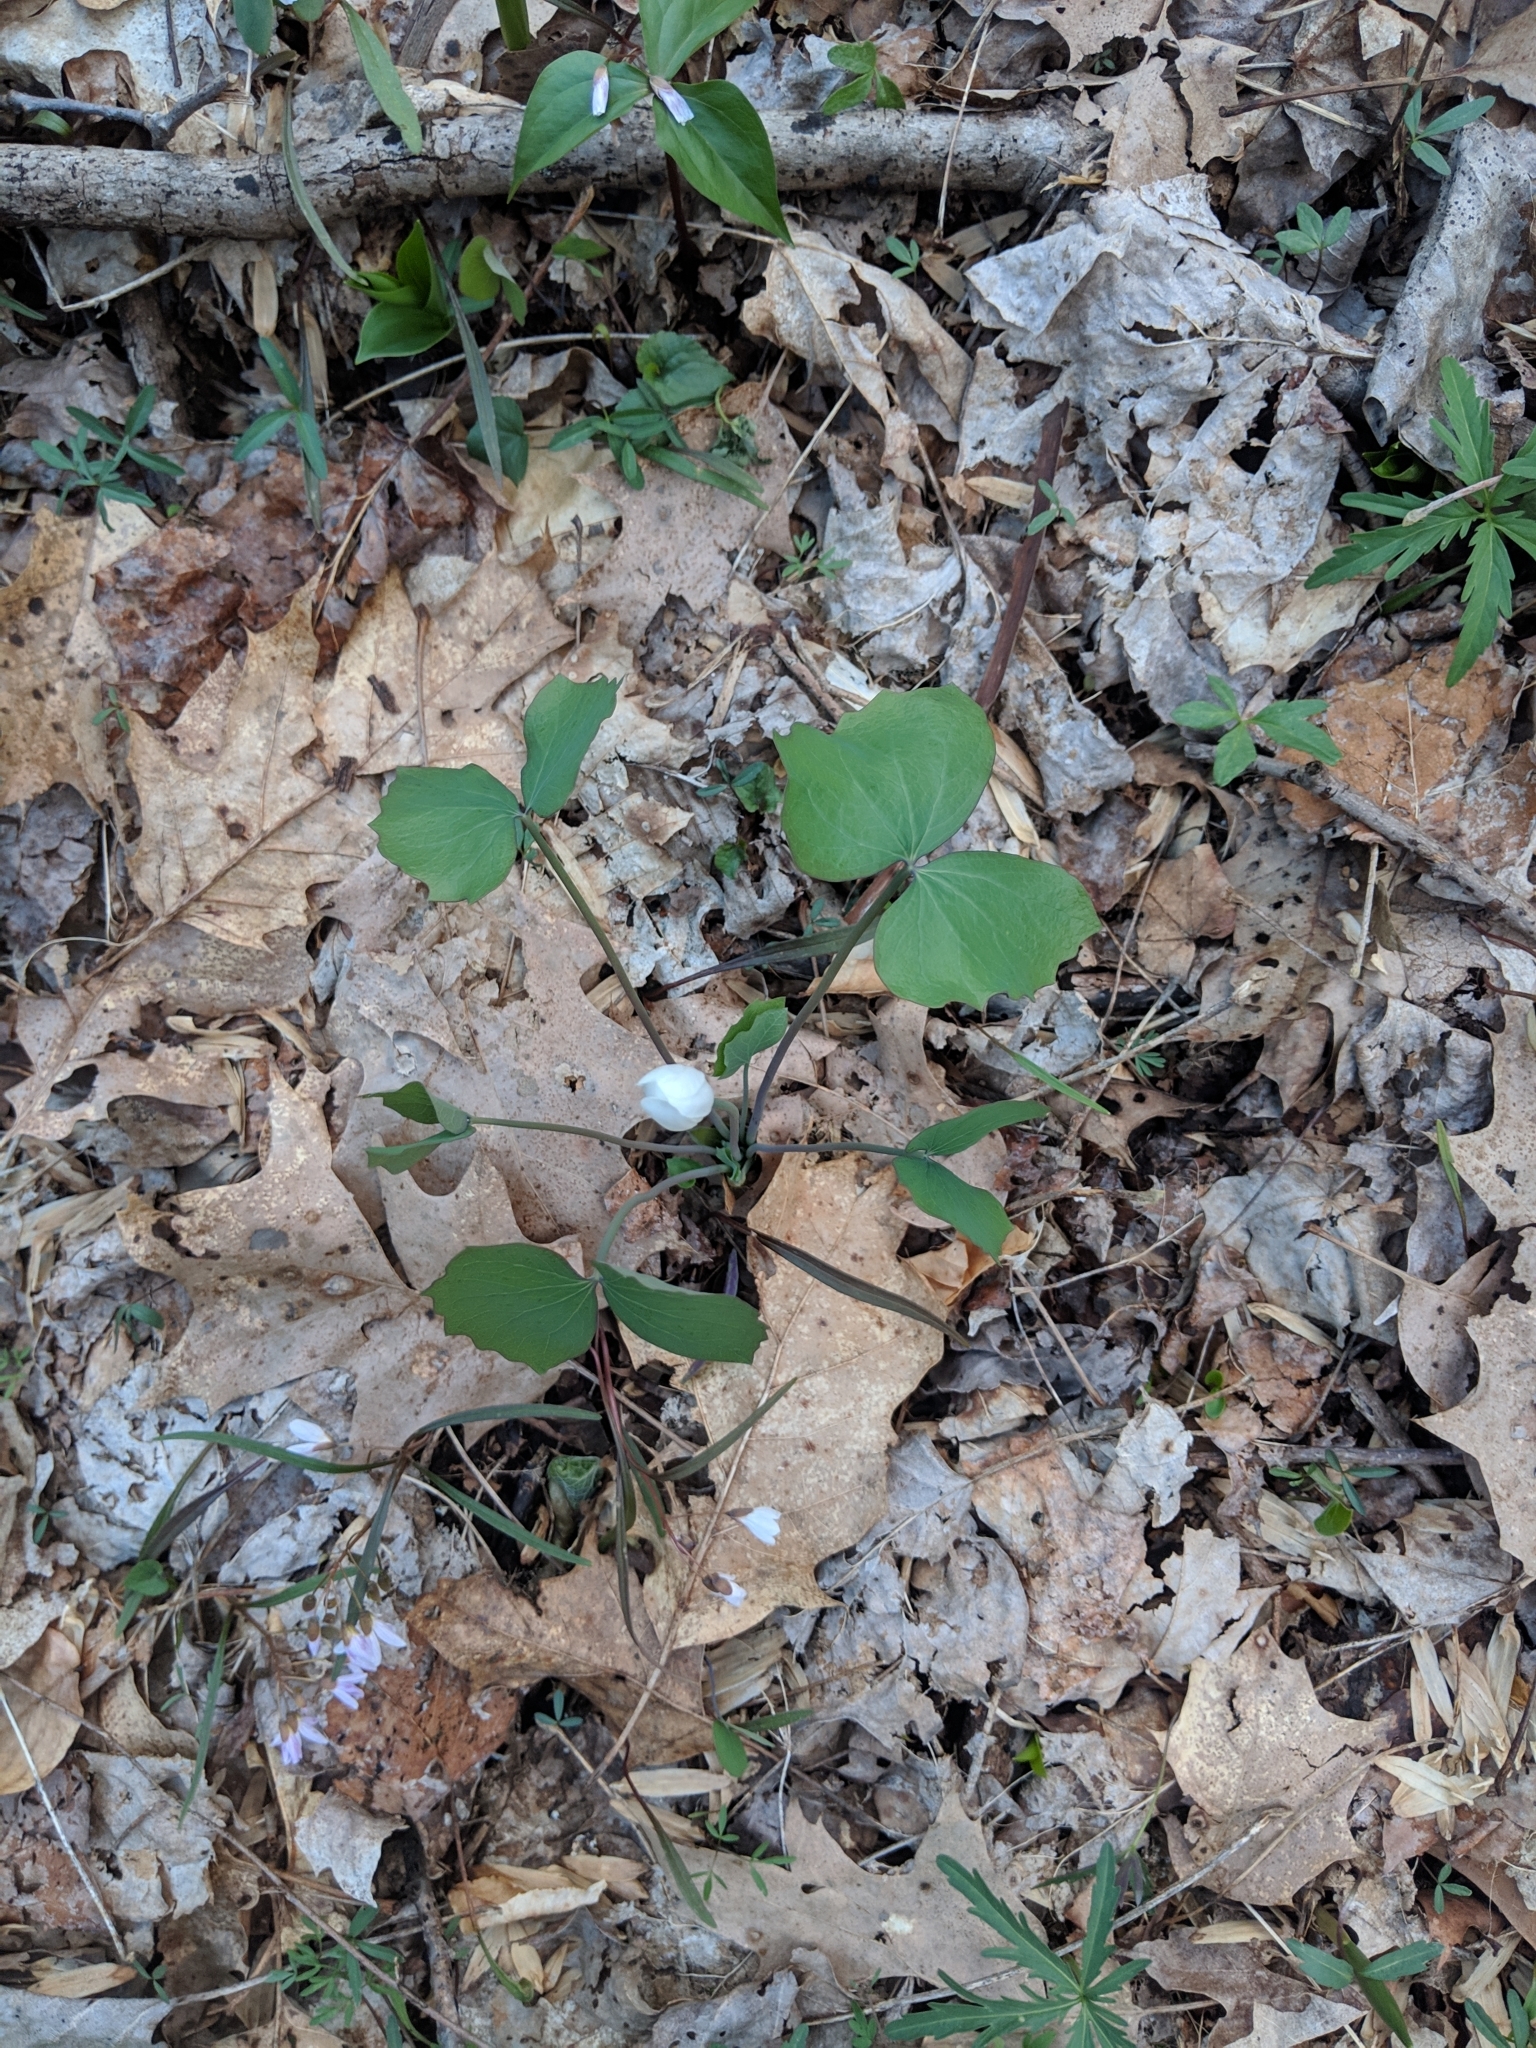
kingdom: Plantae
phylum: Tracheophyta
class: Magnoliopsida
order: Ranunculales
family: Berberidaceae
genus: Jeffersonia
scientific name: Jeffersonia diphylla
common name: Rheumatism-root
